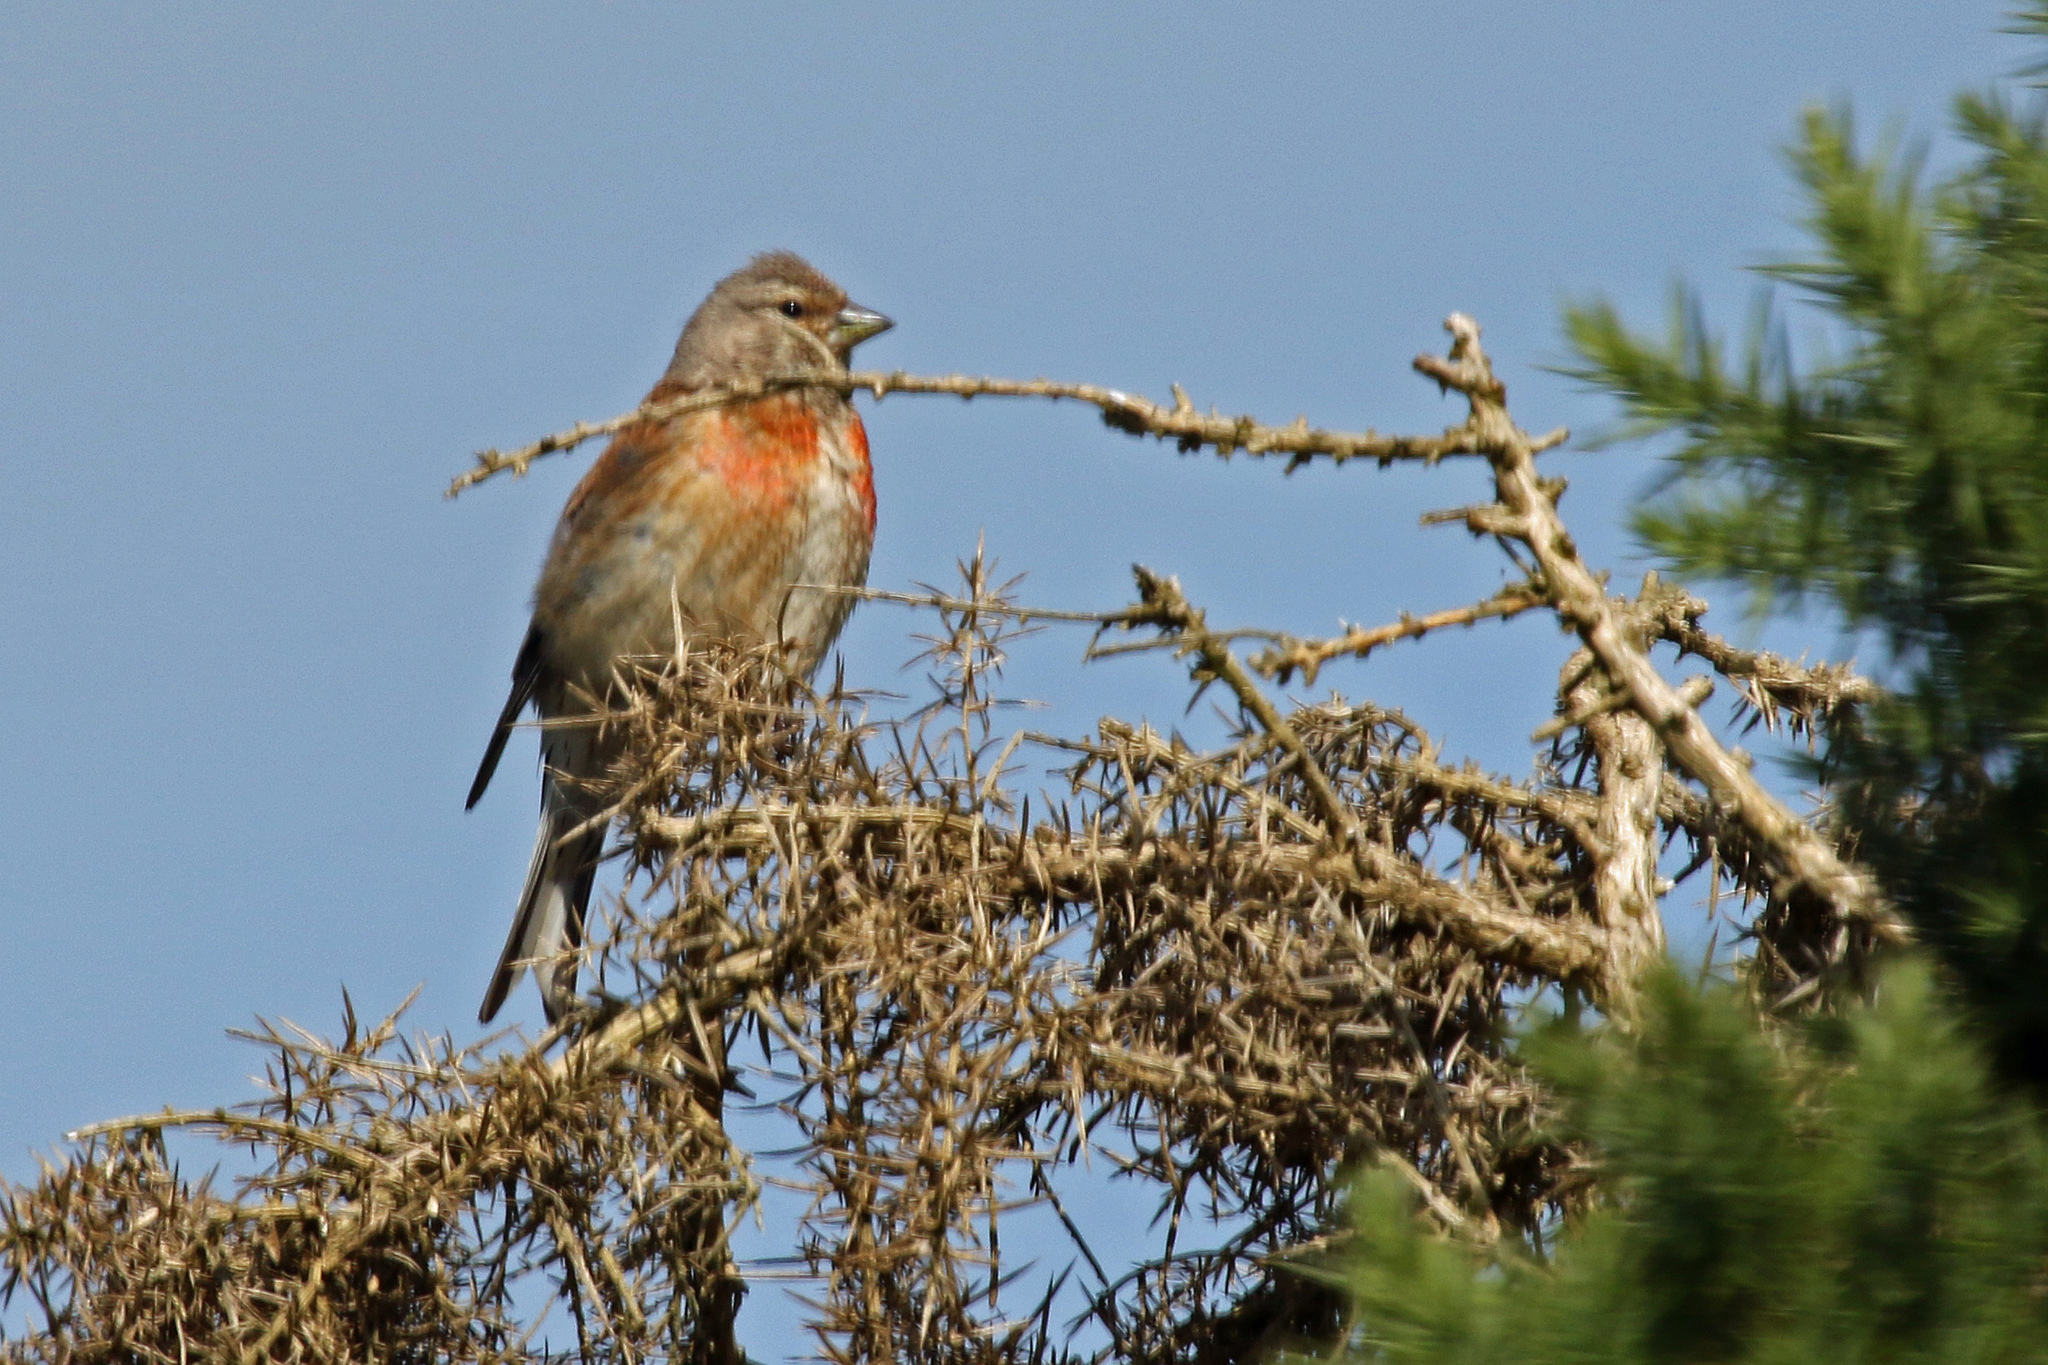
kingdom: Animalia
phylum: Chordata
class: Aves
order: Passeriformes
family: Fringillidae
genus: Linaria
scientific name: Linaria cannabina
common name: Common linnet
